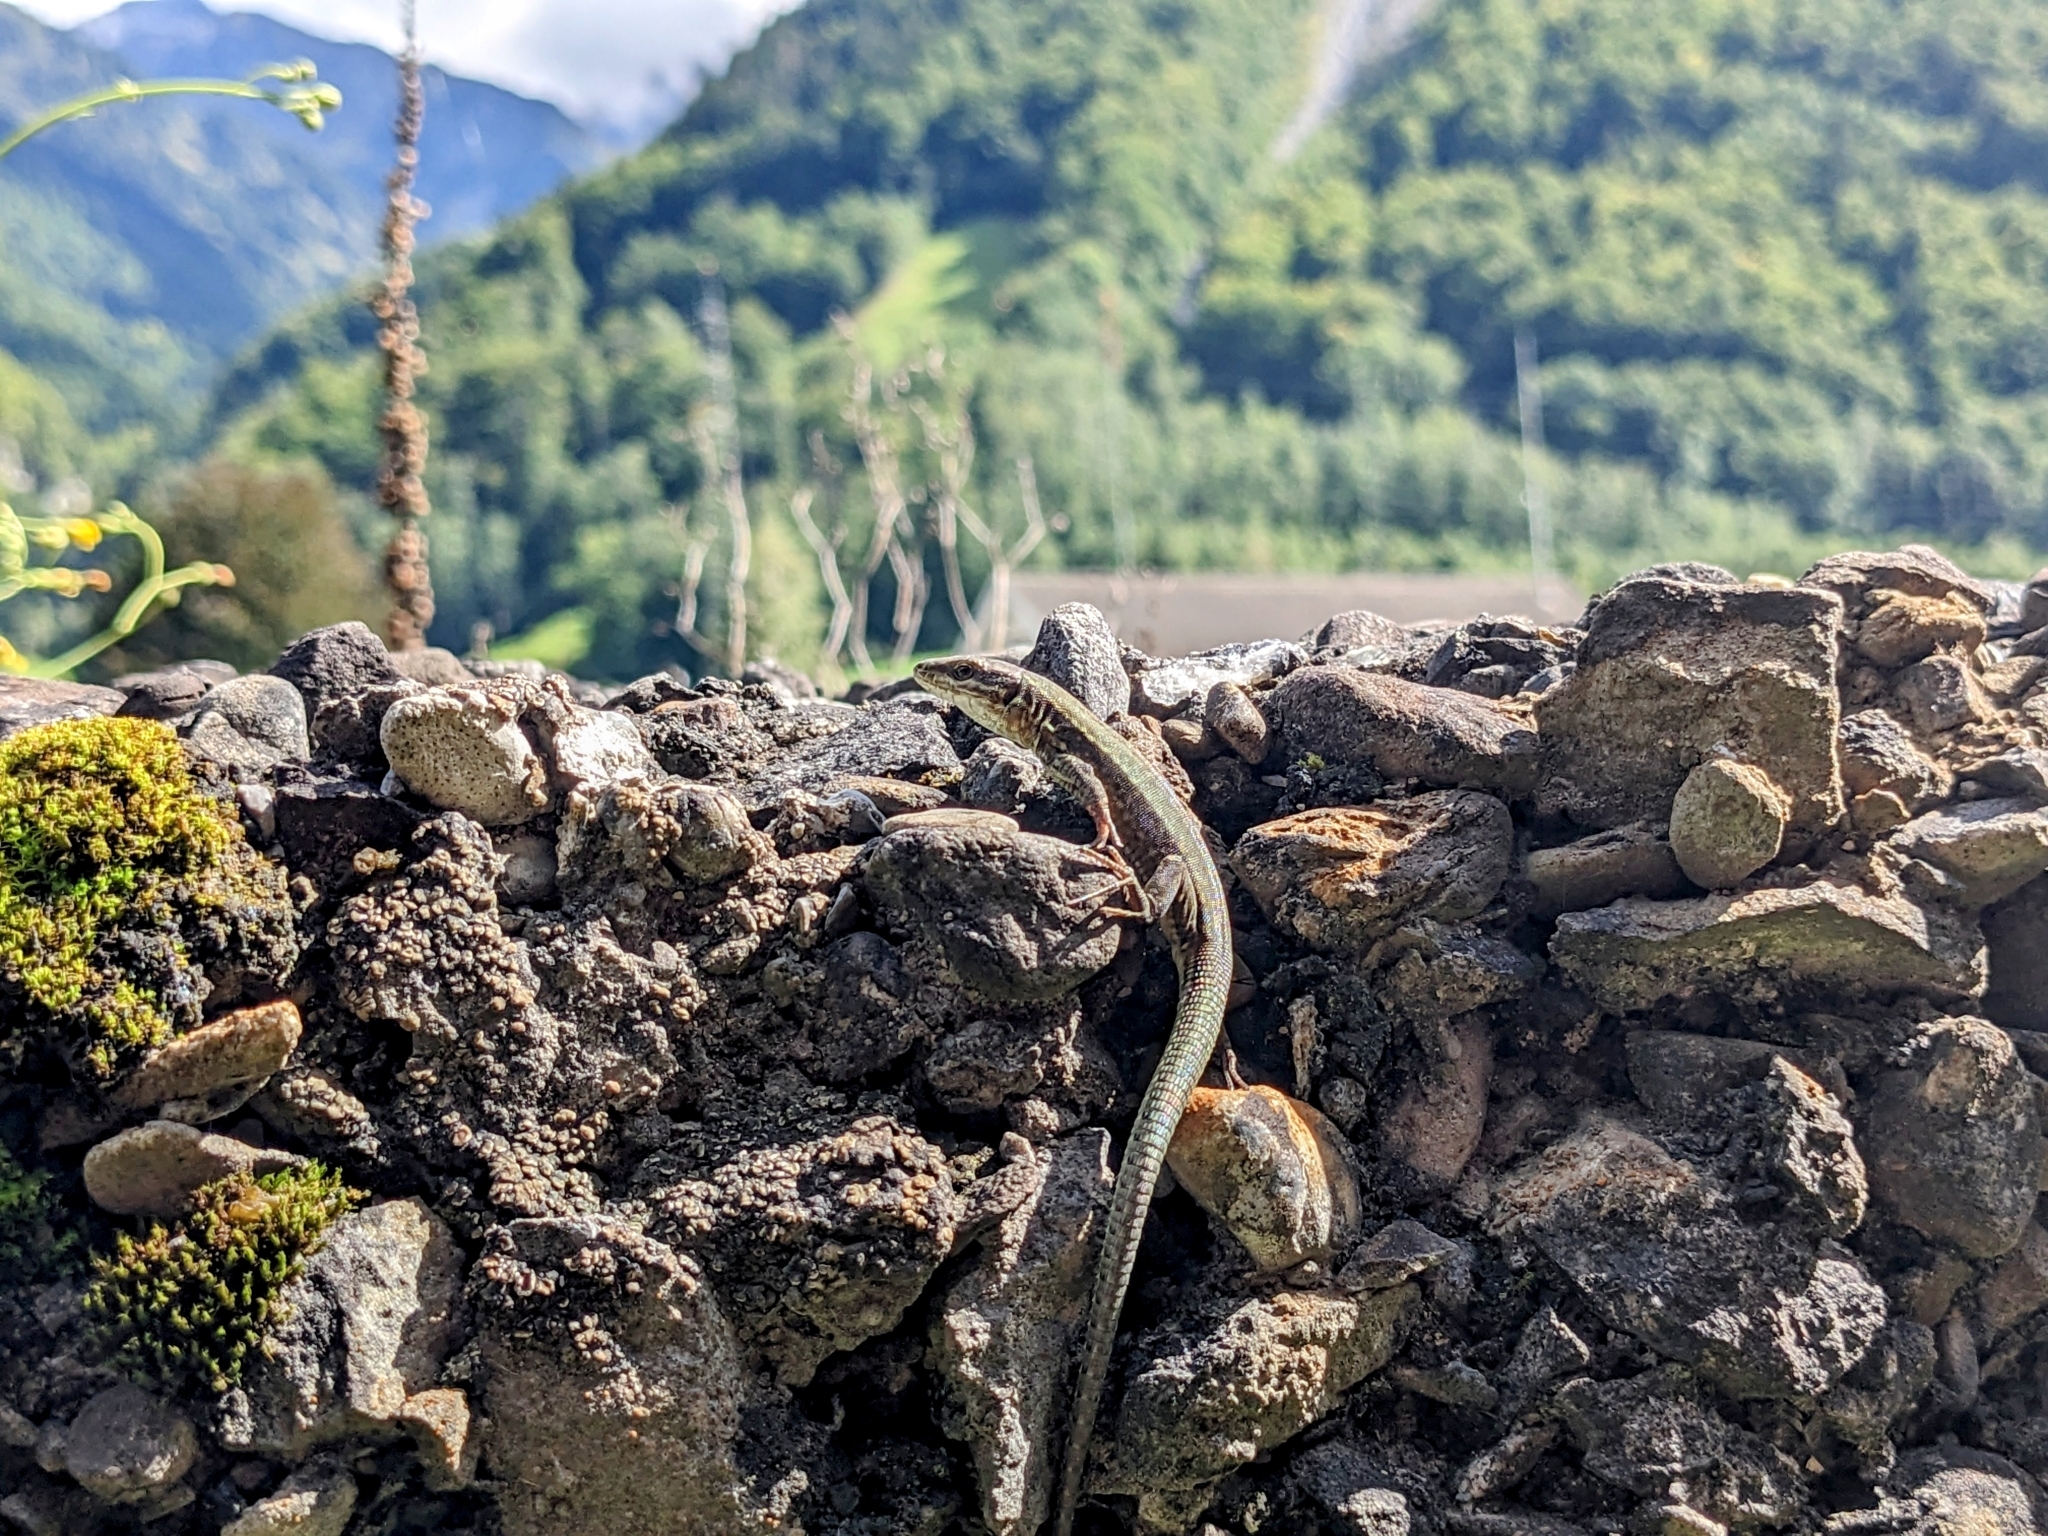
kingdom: Animalia
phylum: Chordata
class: Squamata
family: Lacertidae
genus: Podarcis
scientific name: Podarcis muralis
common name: Common wall lizard
